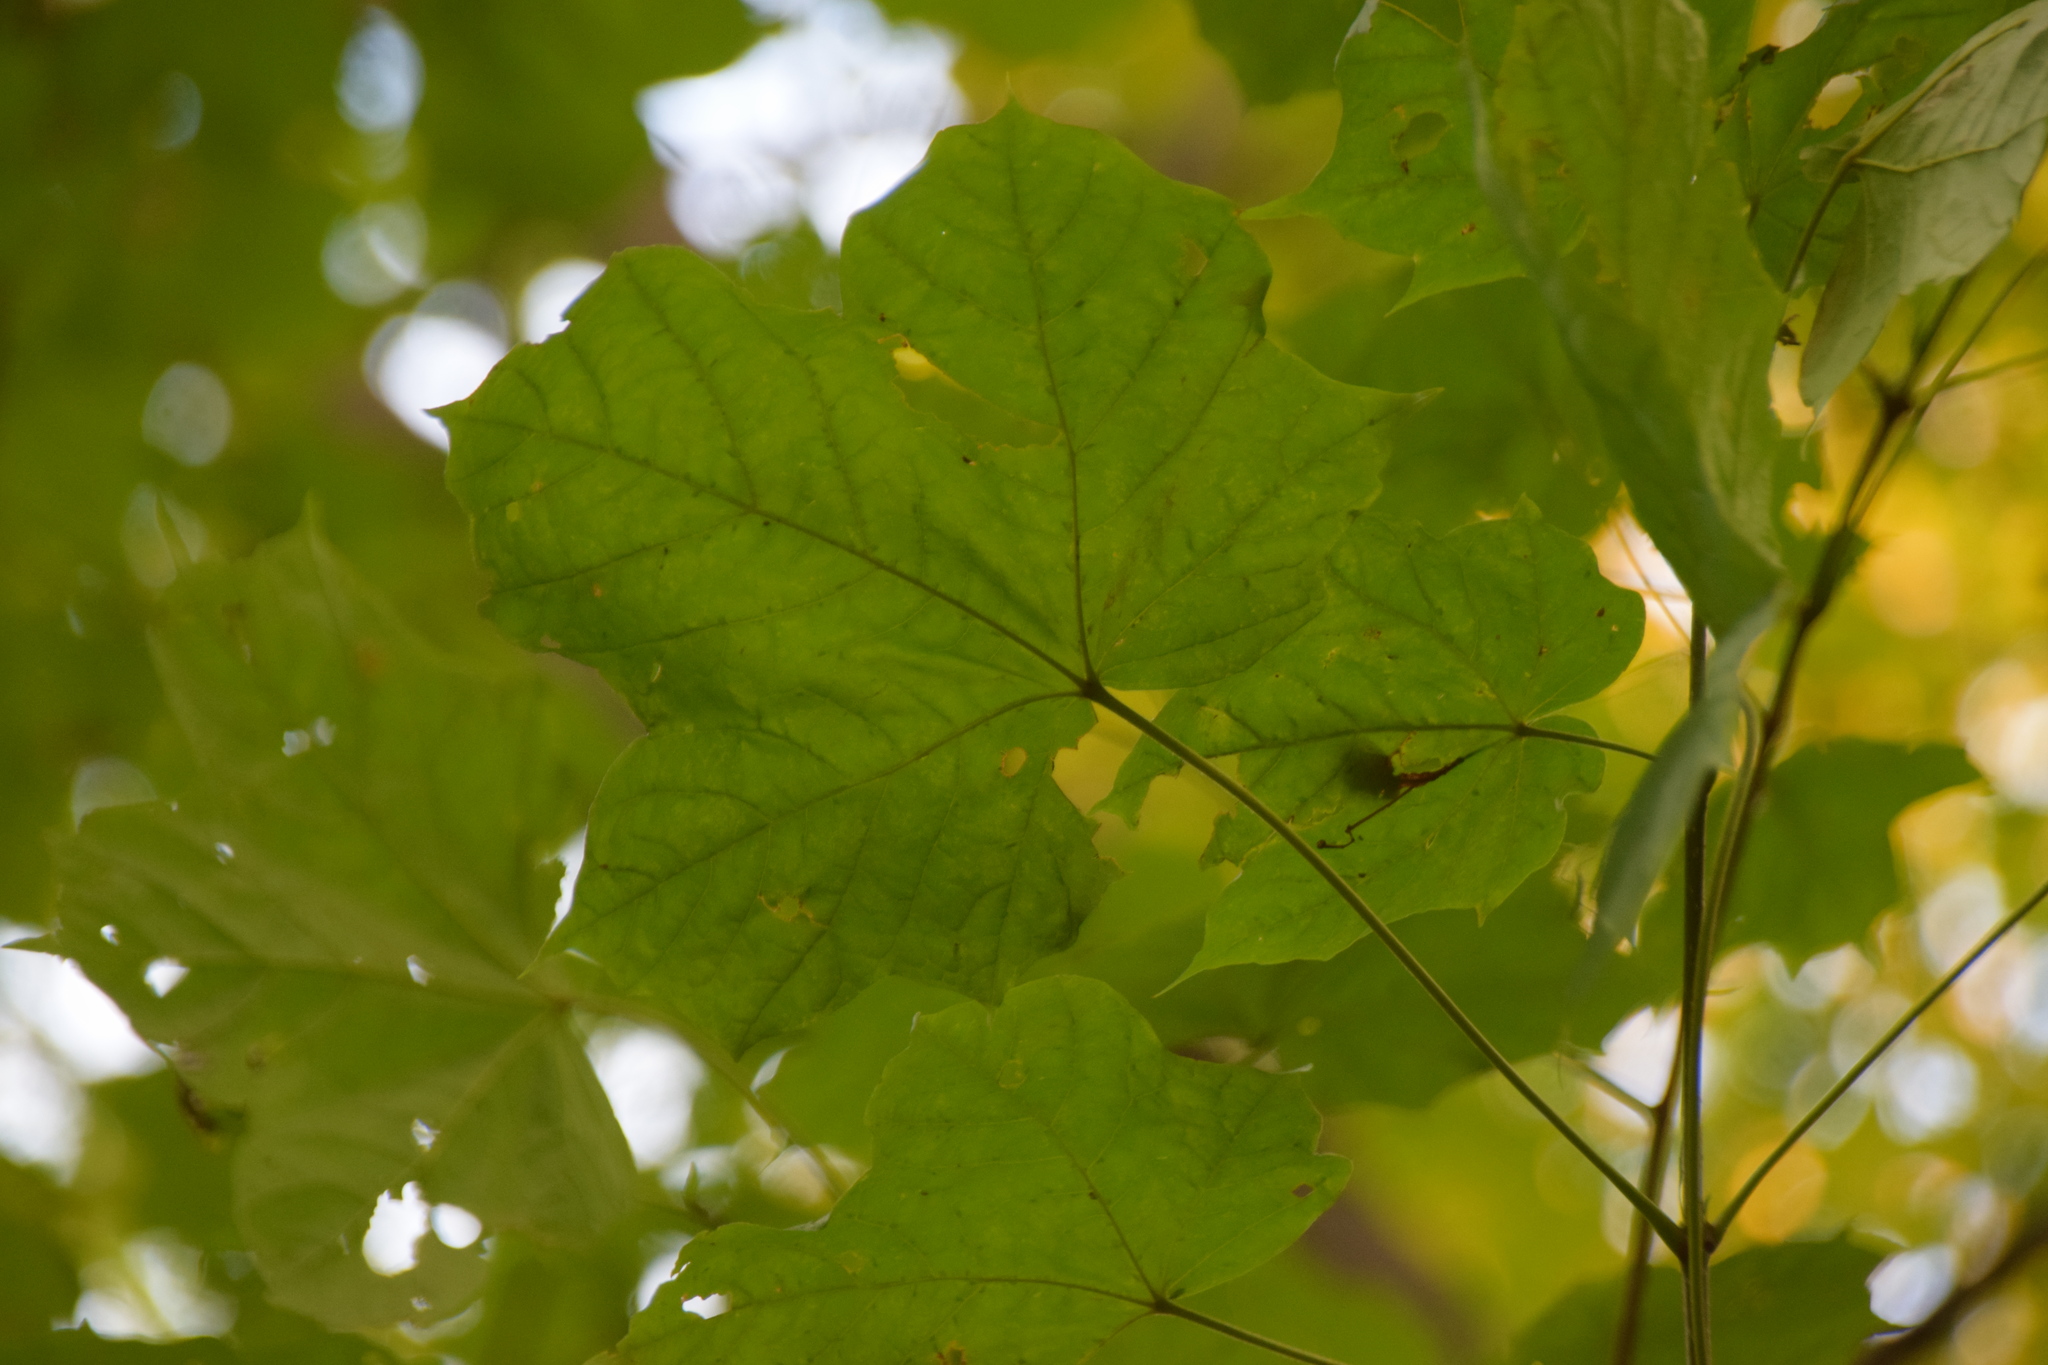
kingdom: Plantae
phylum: Tracheophyta
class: Magnoliopsida
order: Sapindales
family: Sapindaceae
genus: Acer
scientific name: Acer nigrum
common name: Black maple
